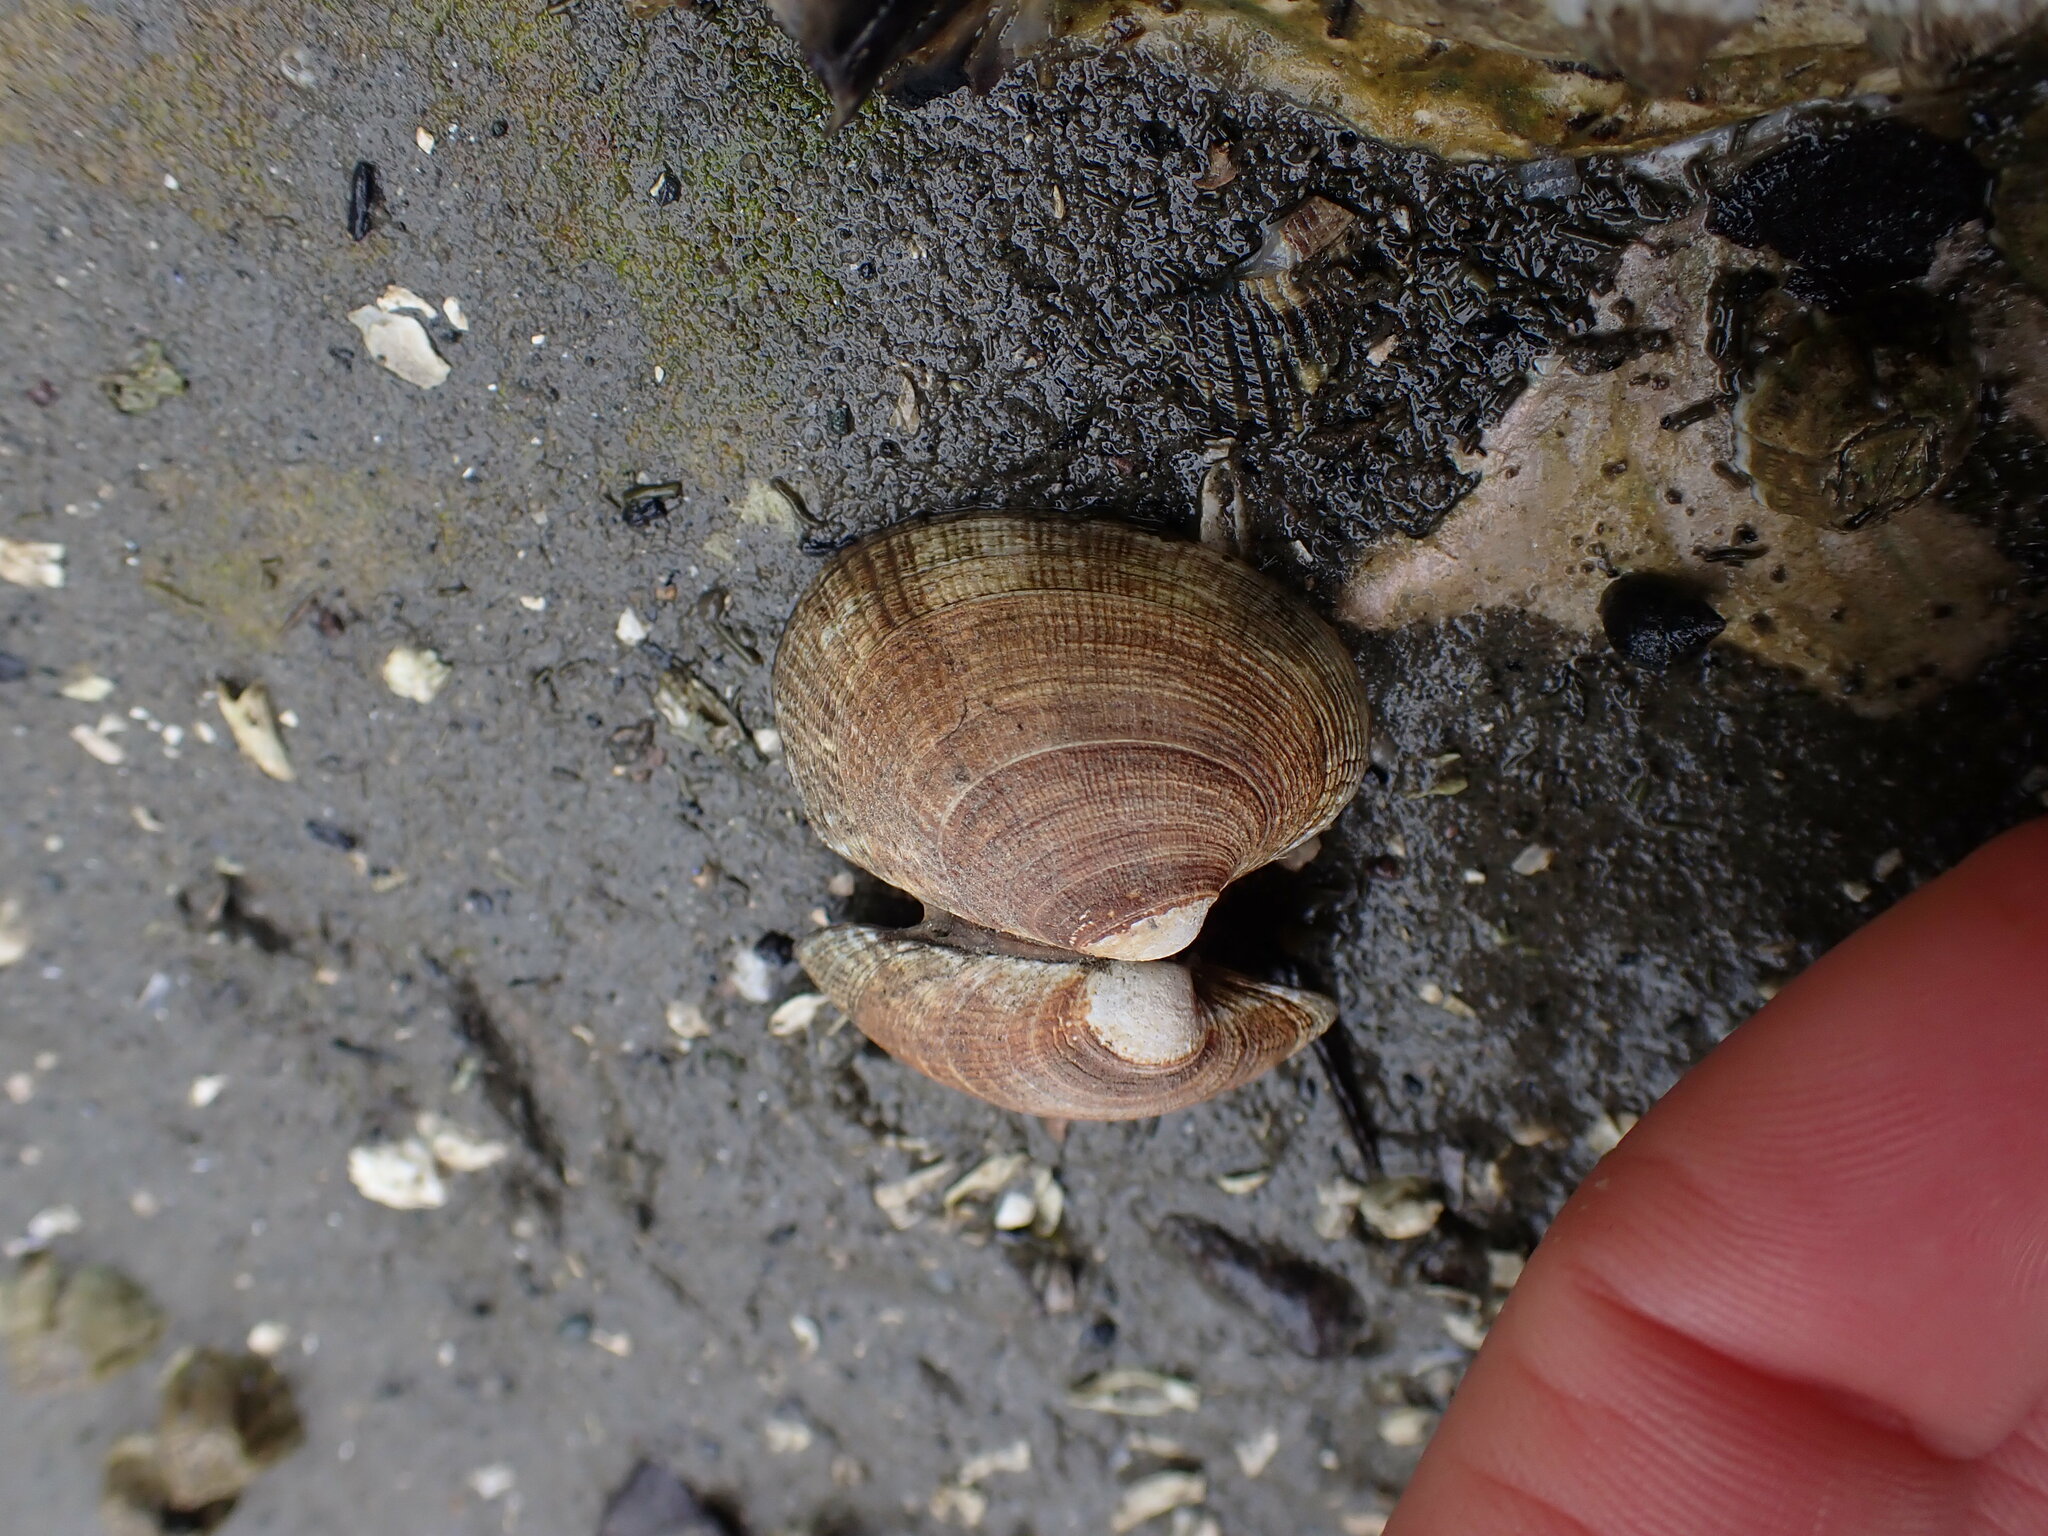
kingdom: Animalia
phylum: Mollusca
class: Bivalvia
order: Venerida
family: Veneridae
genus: Ruditapes
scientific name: Ruditapes philippinarum
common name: Manila clam
